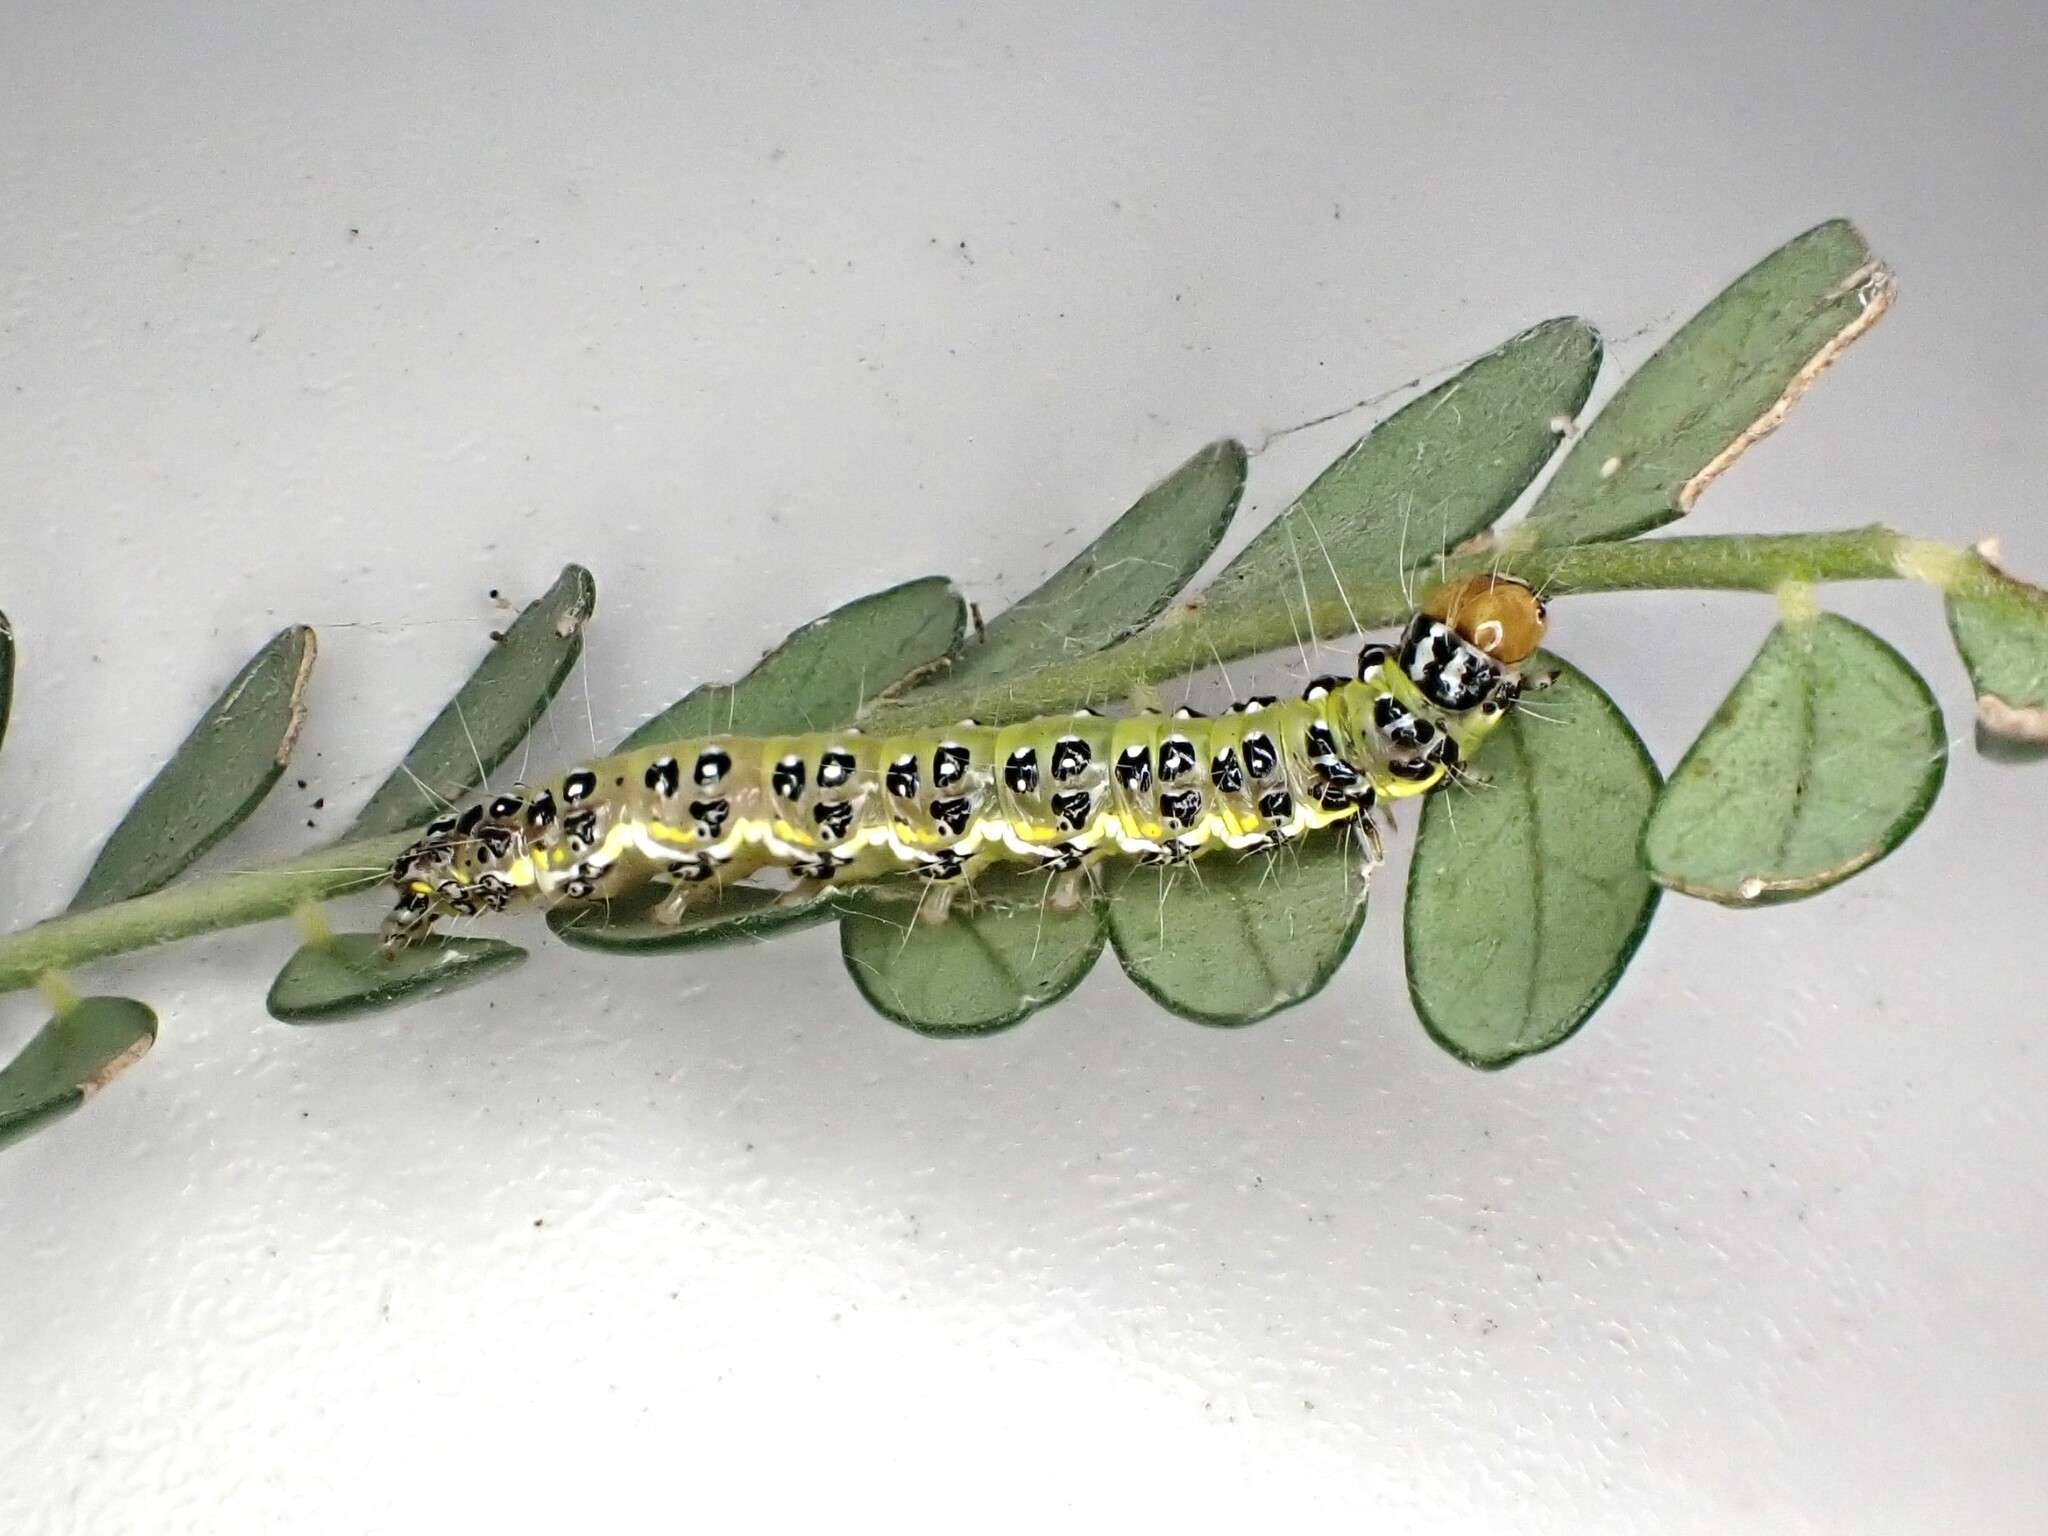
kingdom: Animalia
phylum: Arthropoda
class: Insecta
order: Lepidoptera
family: Crambidae
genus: Uresiphita
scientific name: Uresiphita
